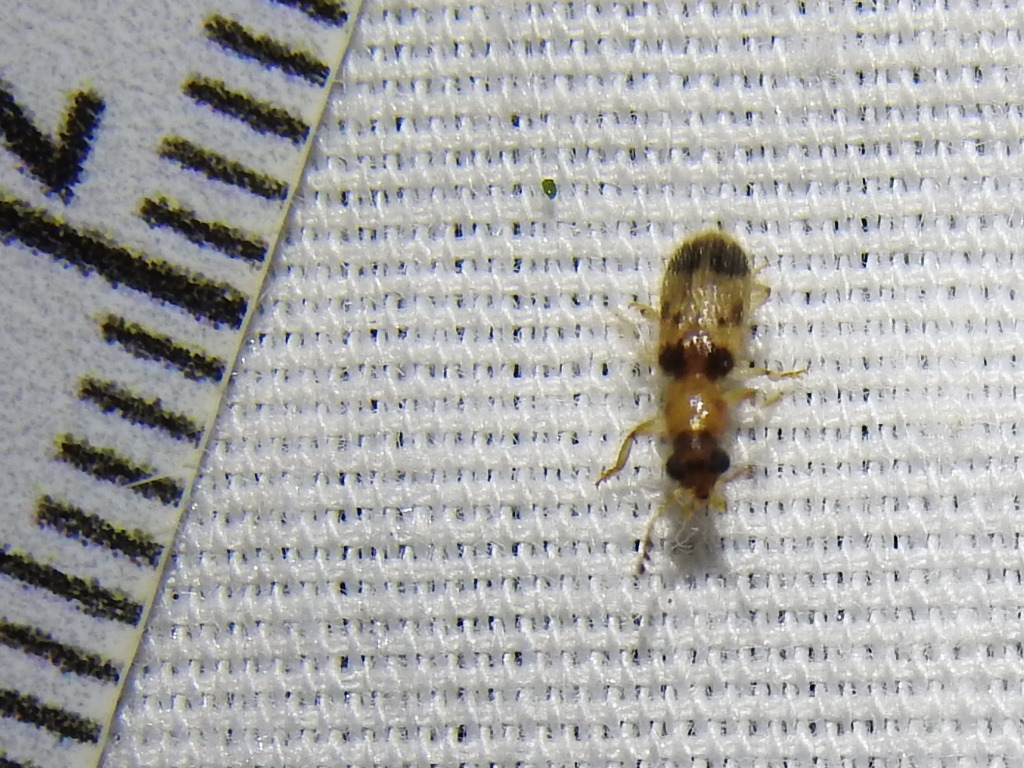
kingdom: Animalia
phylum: Arthropoda
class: Insecta
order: Coleoptera
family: Cleridae
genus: Cregya
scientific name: Cregya america
